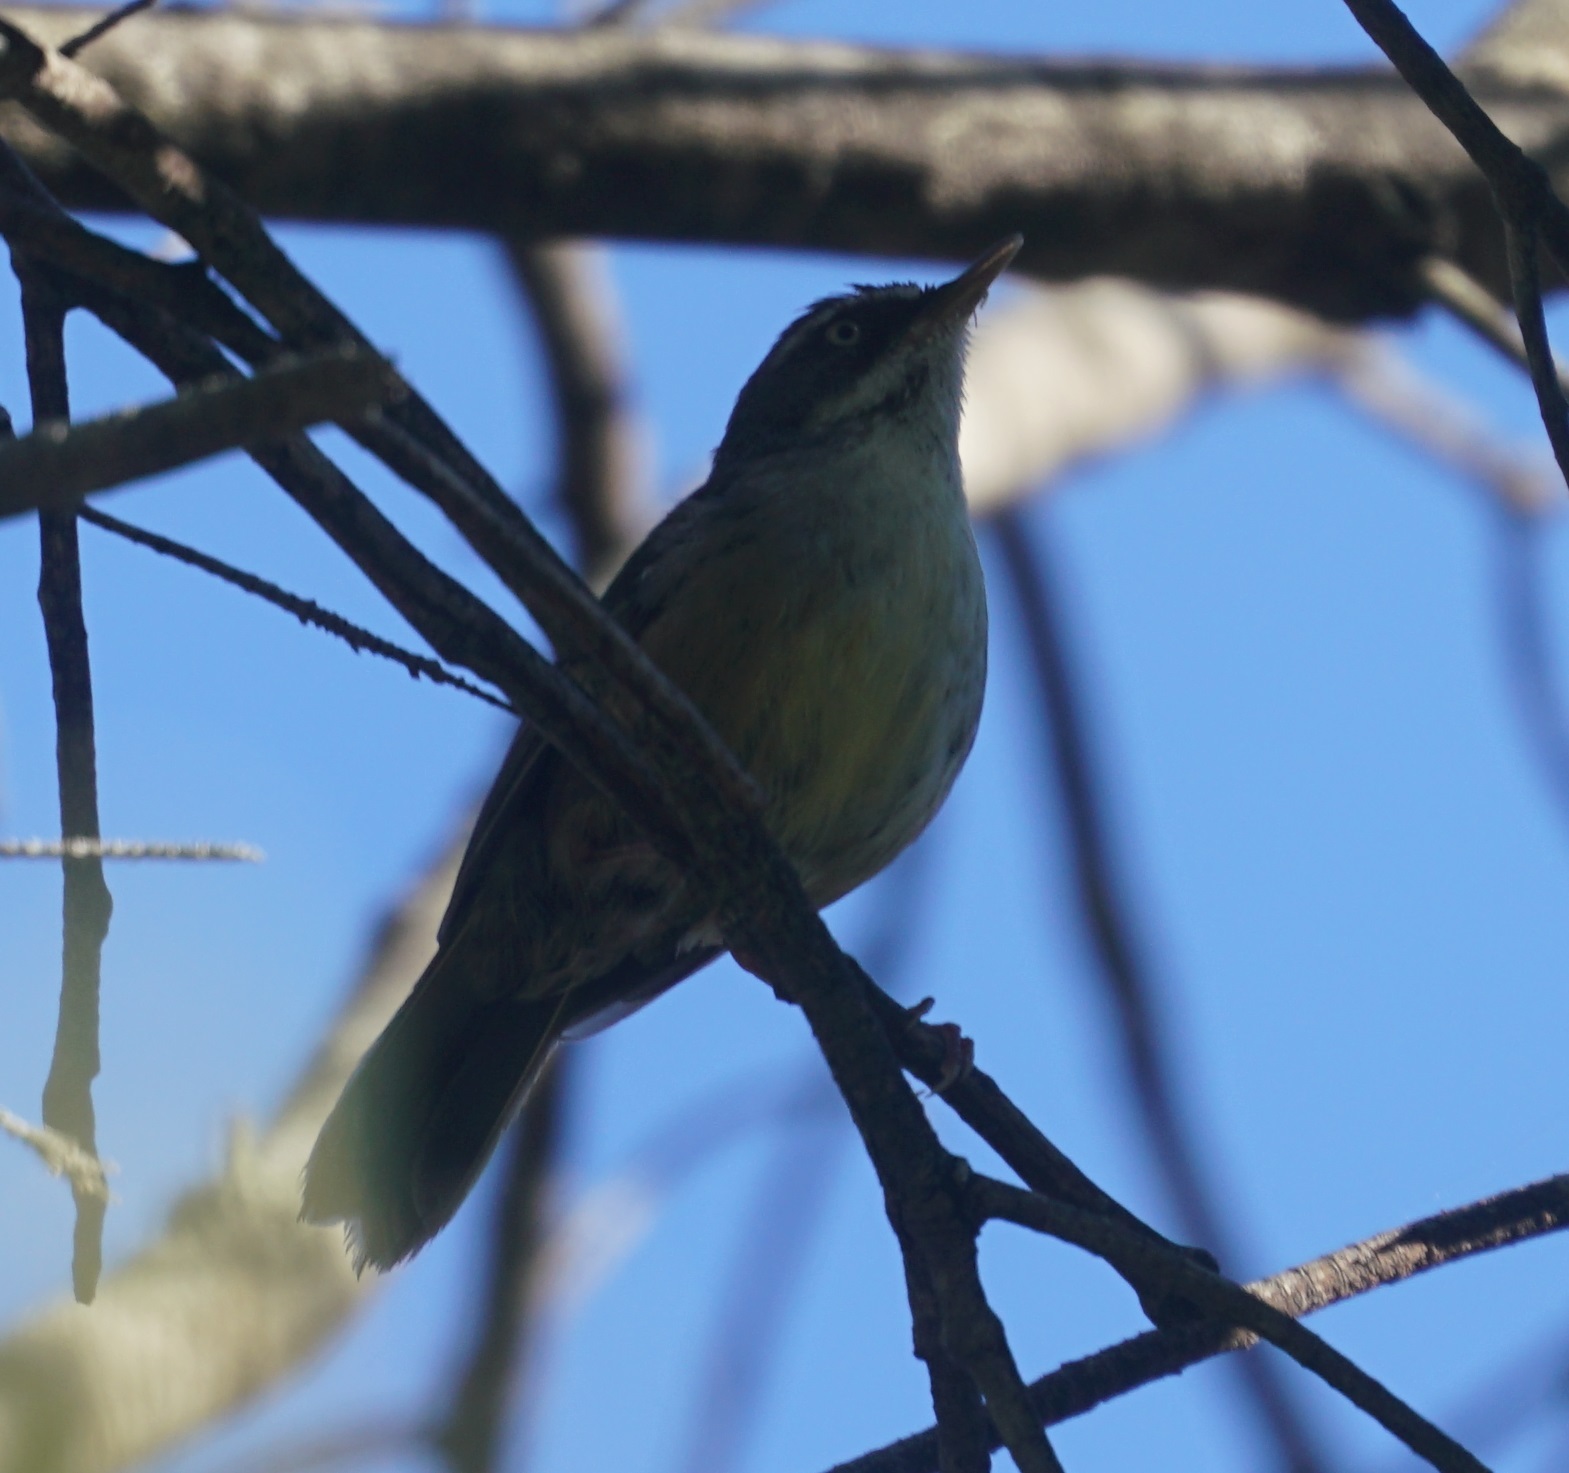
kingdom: Animalia
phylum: Chordata
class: Aves
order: Passeriformes
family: Acanthizidae
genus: Sericornis
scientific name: Sericornis frontalis
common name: White-browed scrubwren
